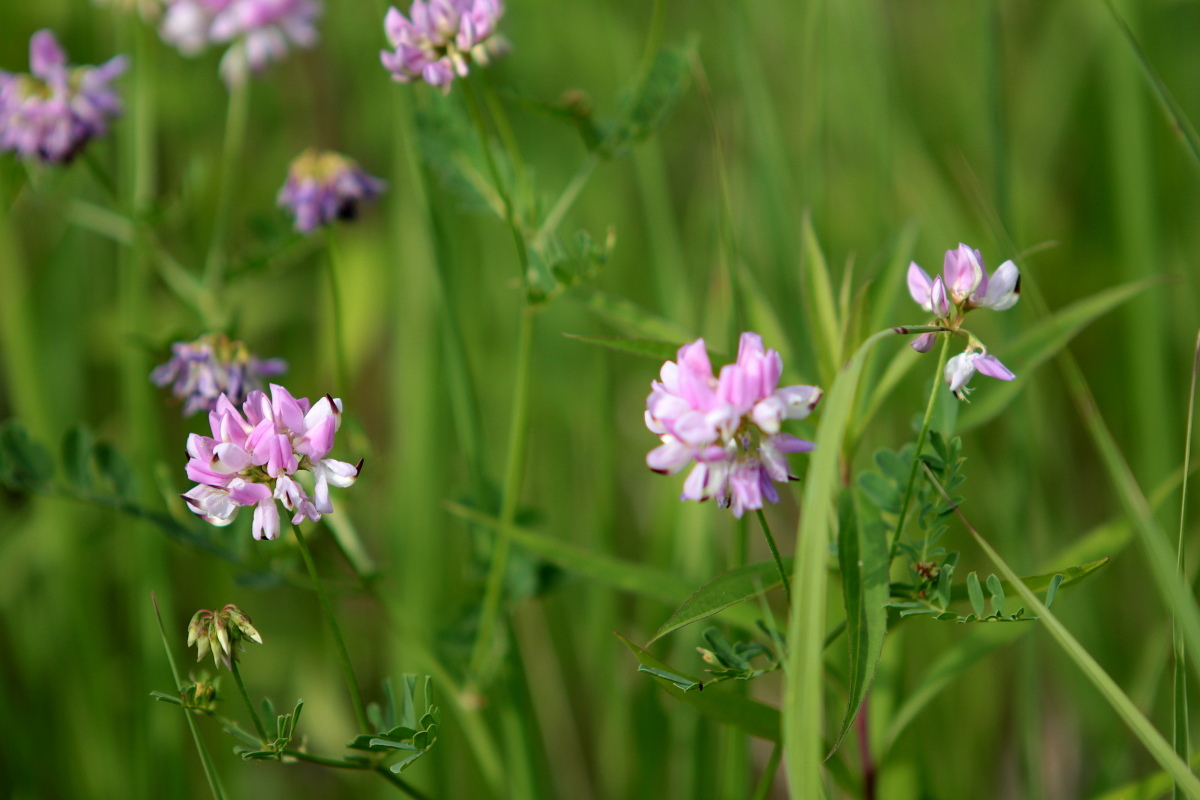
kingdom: Plantae
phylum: Tracheophyta
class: Magnoliopsida
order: Fabales
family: Fabaceae
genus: Coronilla
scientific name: Coronilla varia
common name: Crownvetch
